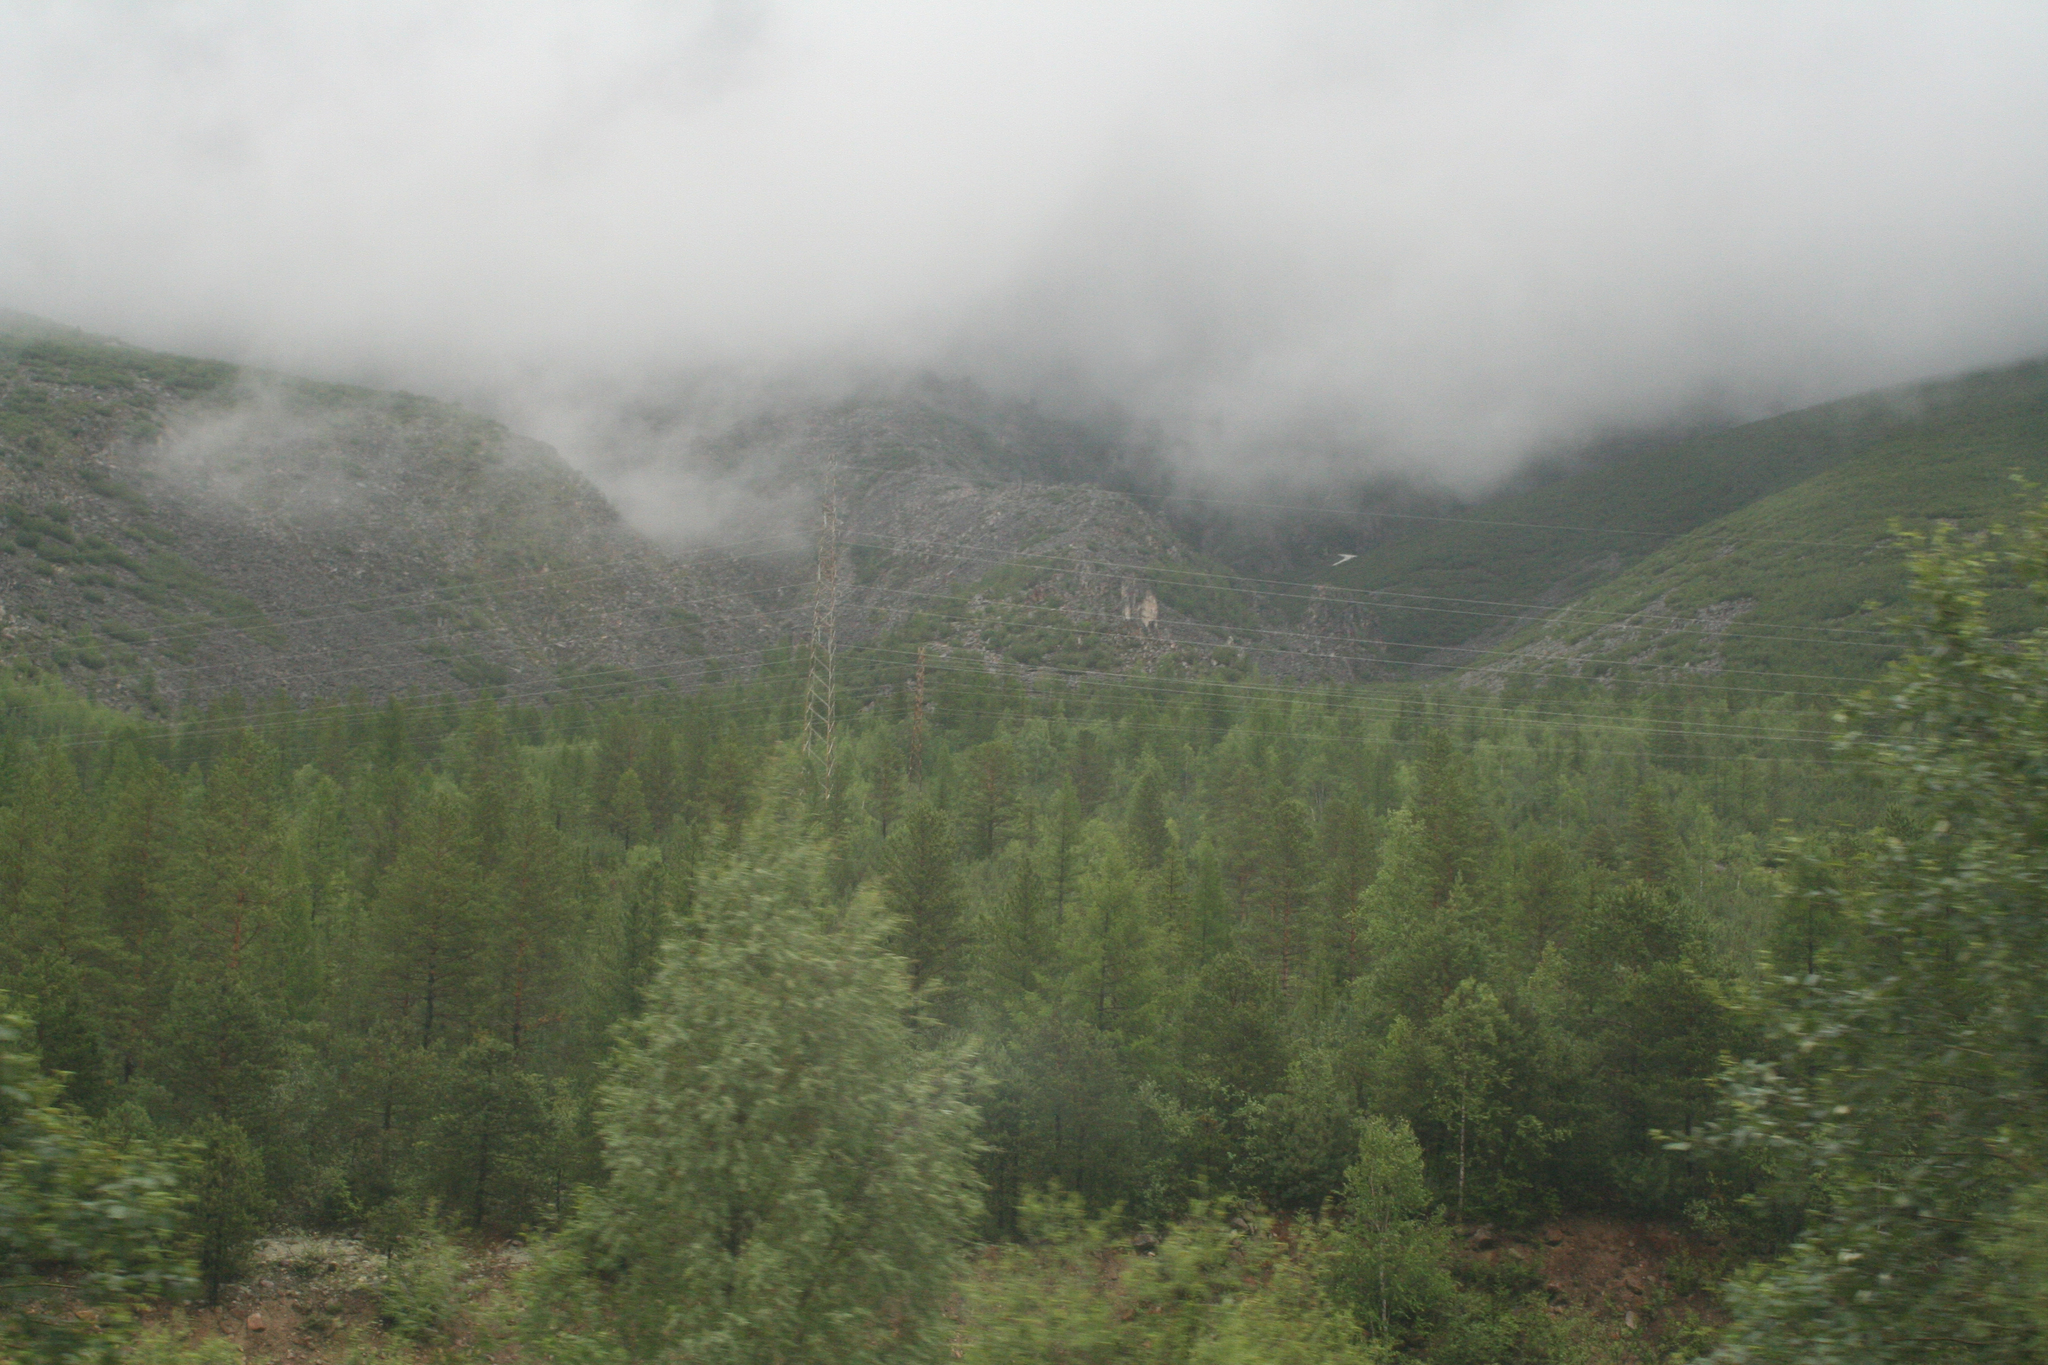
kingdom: Plantae
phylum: Tracheophyta
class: Pinopsida
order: Pinales
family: Pinaceae
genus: Picea
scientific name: Picea obovata
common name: Siberian spruce
